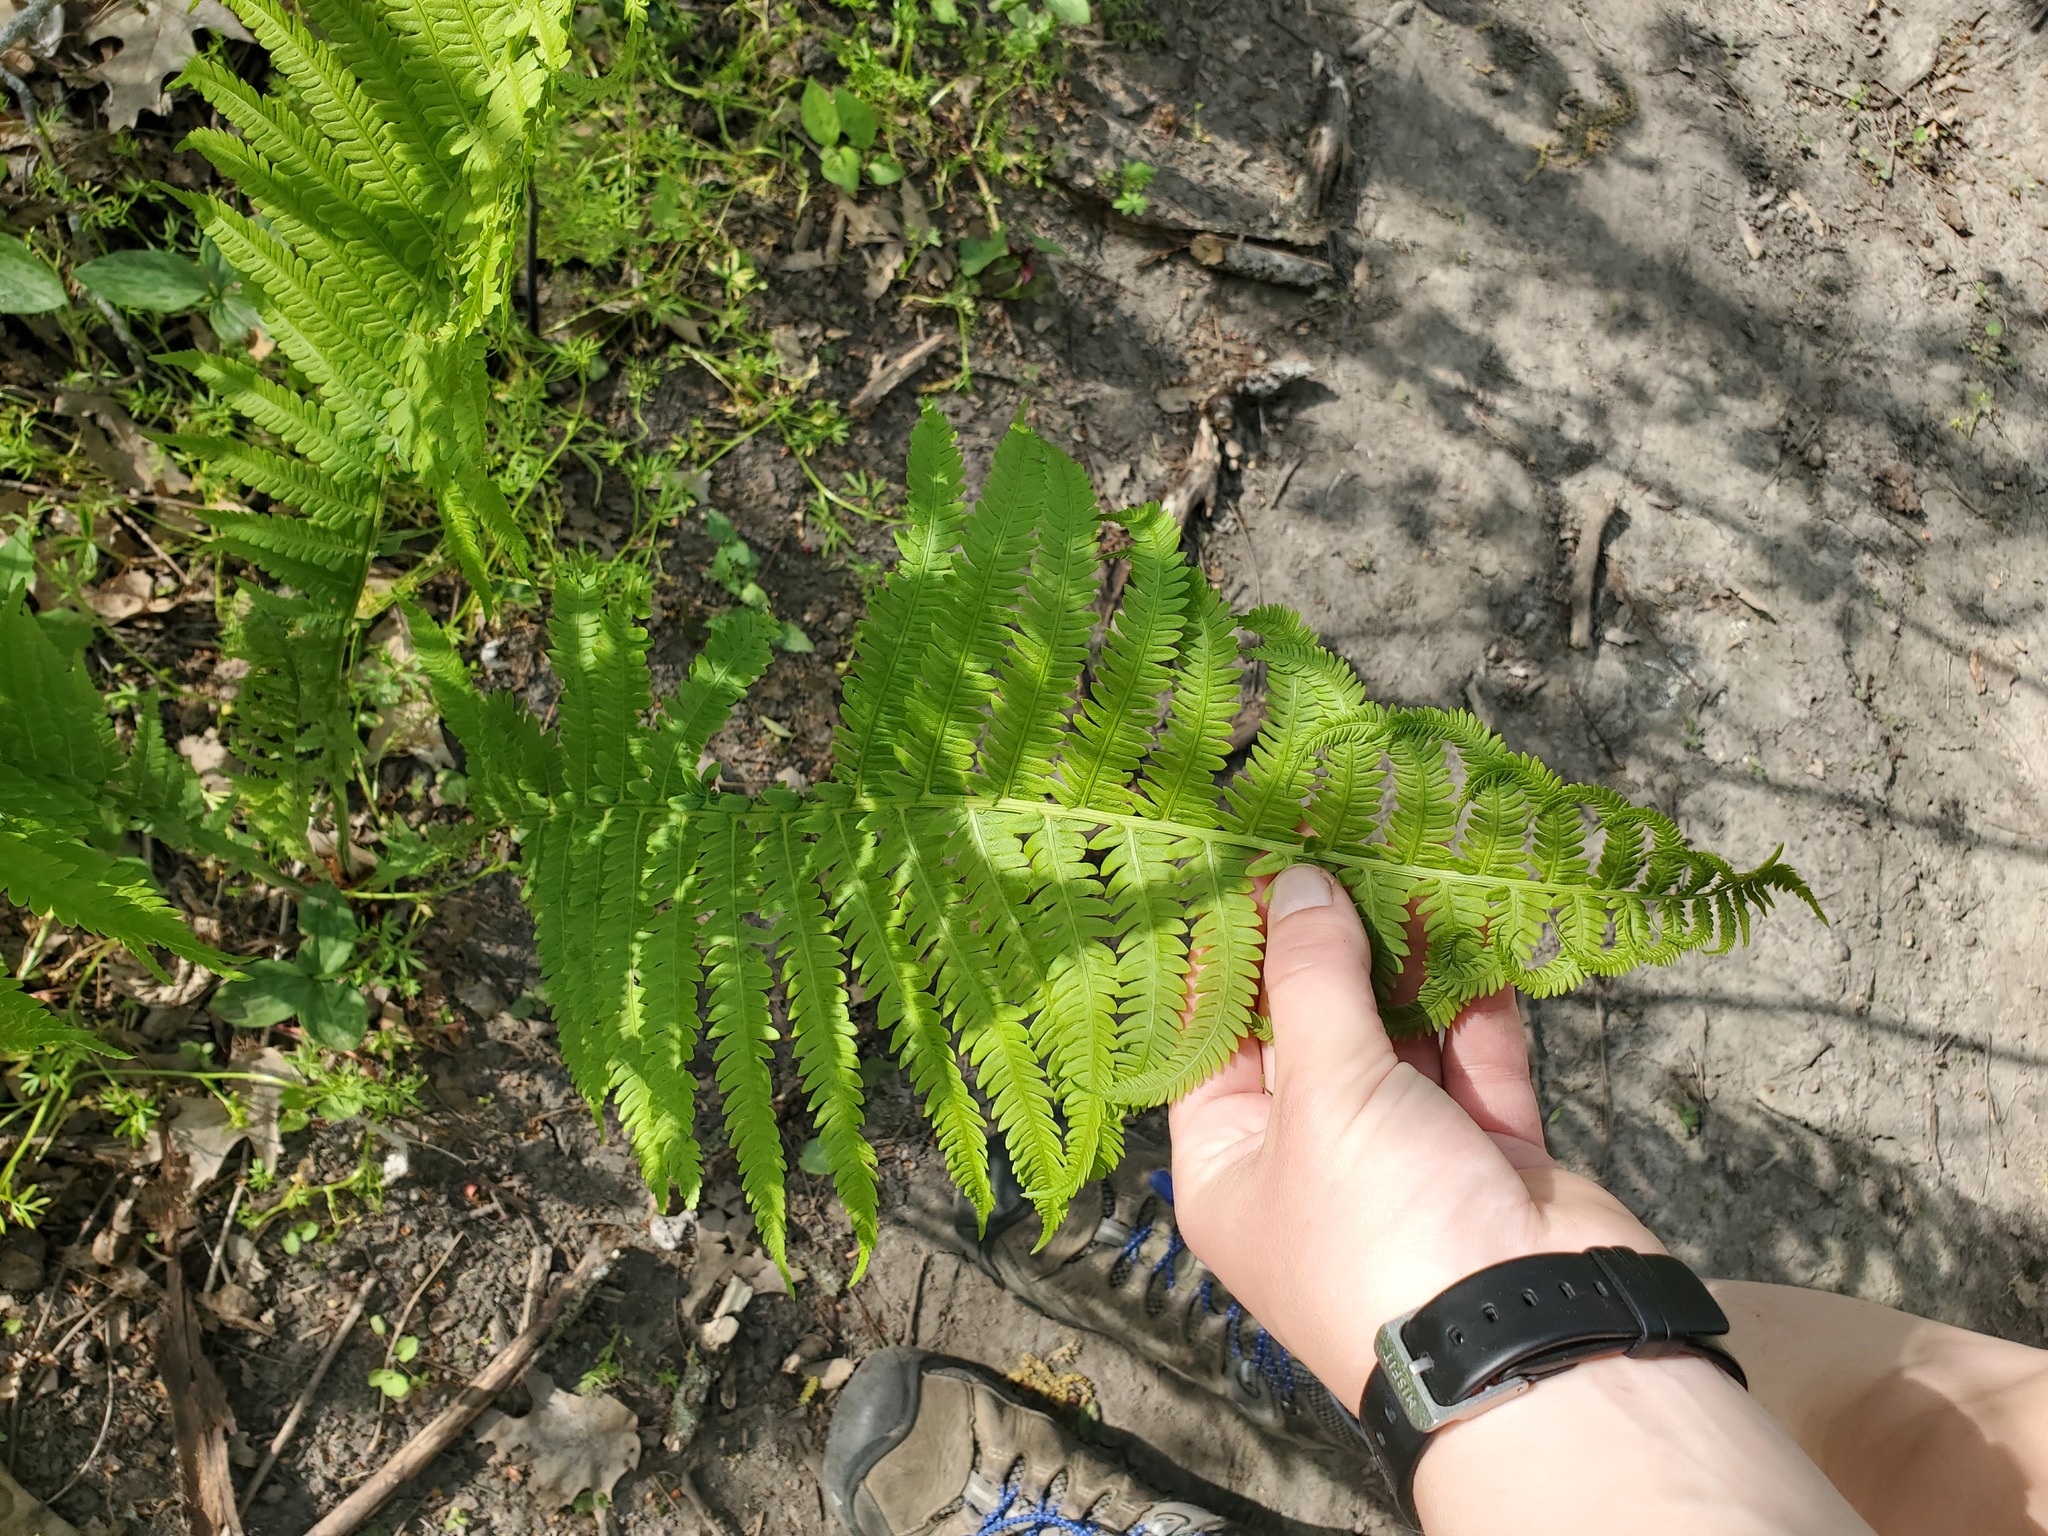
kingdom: Plantae
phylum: Tracheophyta
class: Polypodiopsida
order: Polypodiales
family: Onocleaceae
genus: Matteuccia
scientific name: Matteuccia struthiopteris
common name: Ostrich fern
